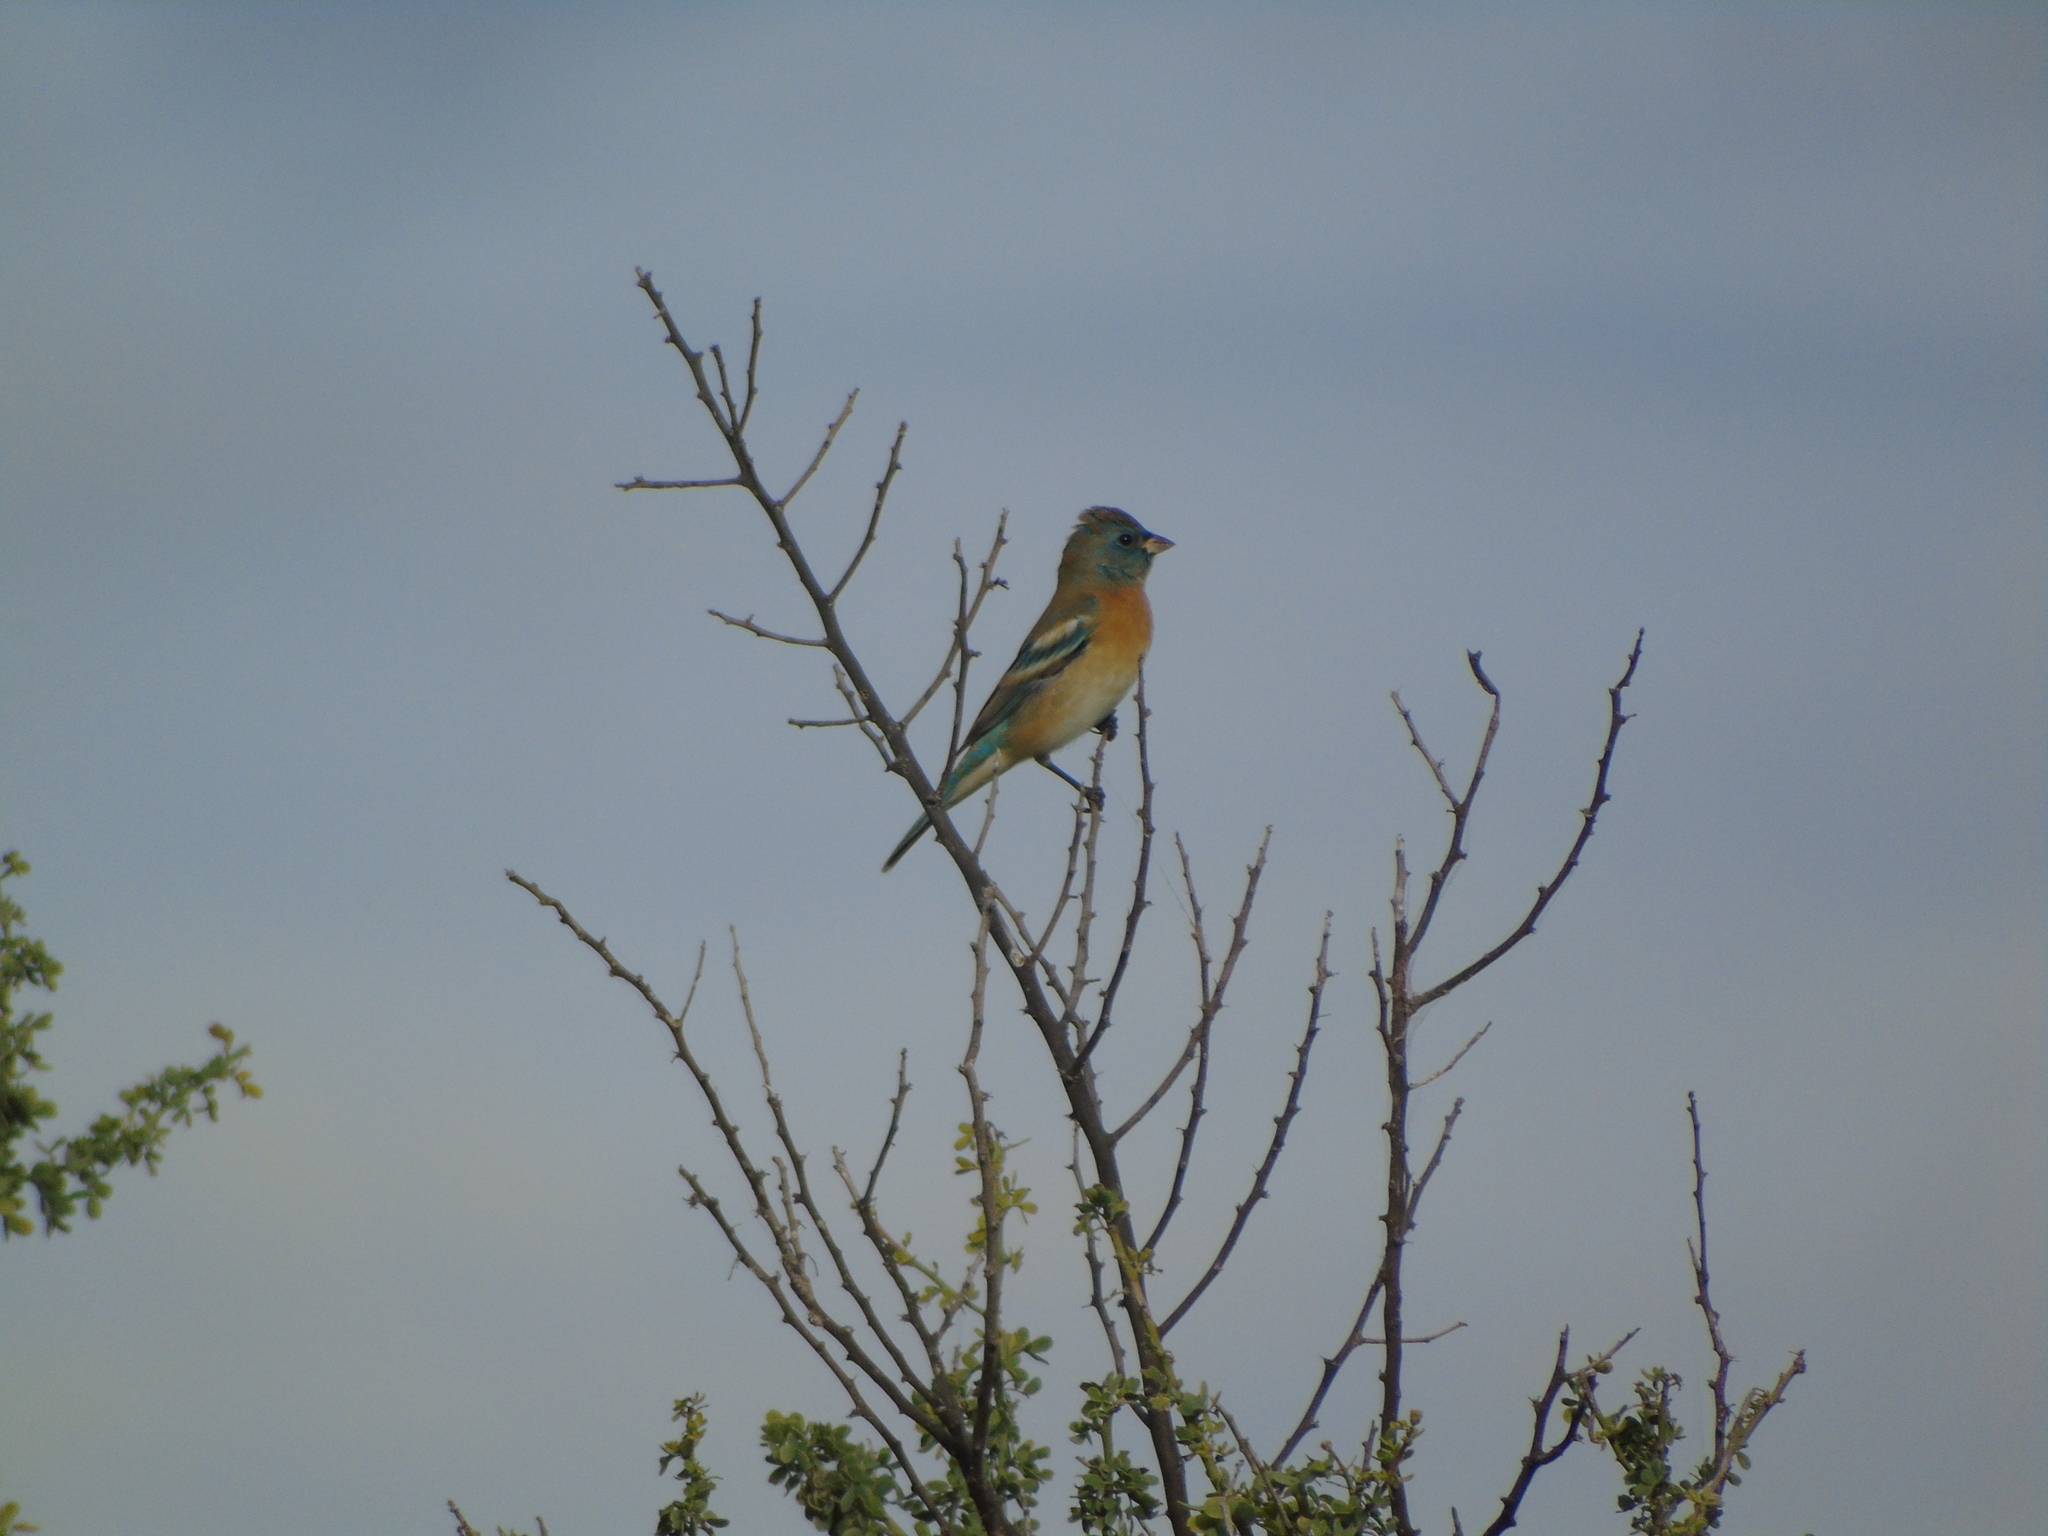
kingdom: Animalia
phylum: Chordata
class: Aves
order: Passeriformes
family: Cardinalidae
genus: Passerina
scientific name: Passerina amoena
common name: Lazuli bunting
